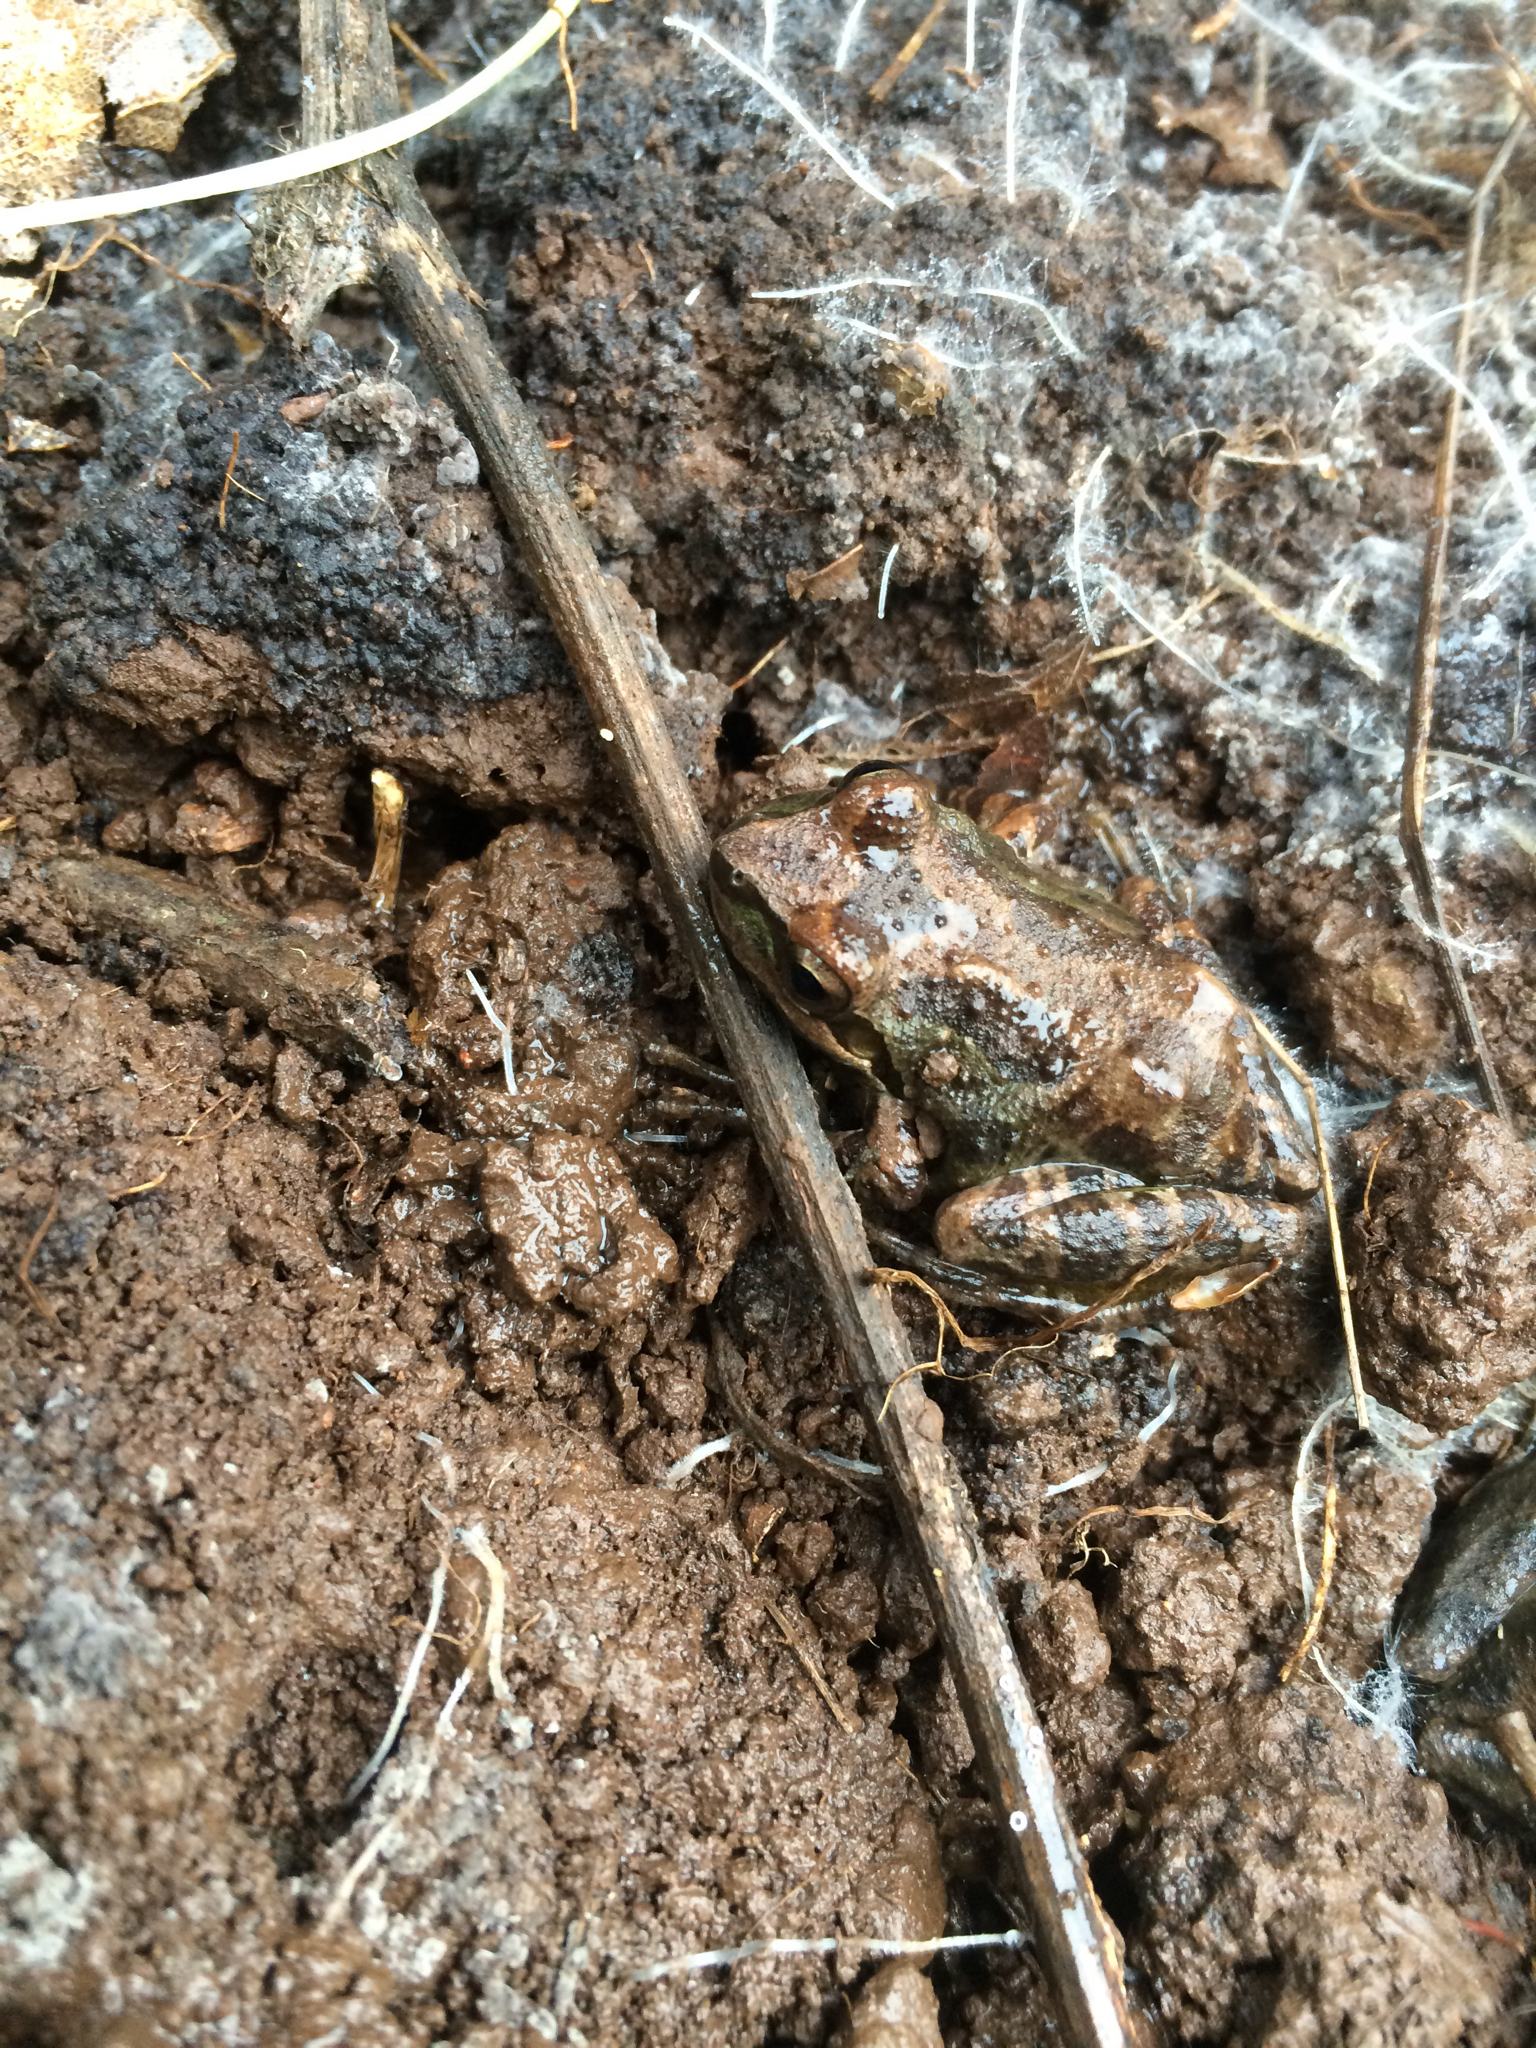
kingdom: Animalia
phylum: Chordata
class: Amphibia
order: Anura
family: Hylidae
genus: Pseudacris
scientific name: Pseudacris regilla
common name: Pacific chorus frog
